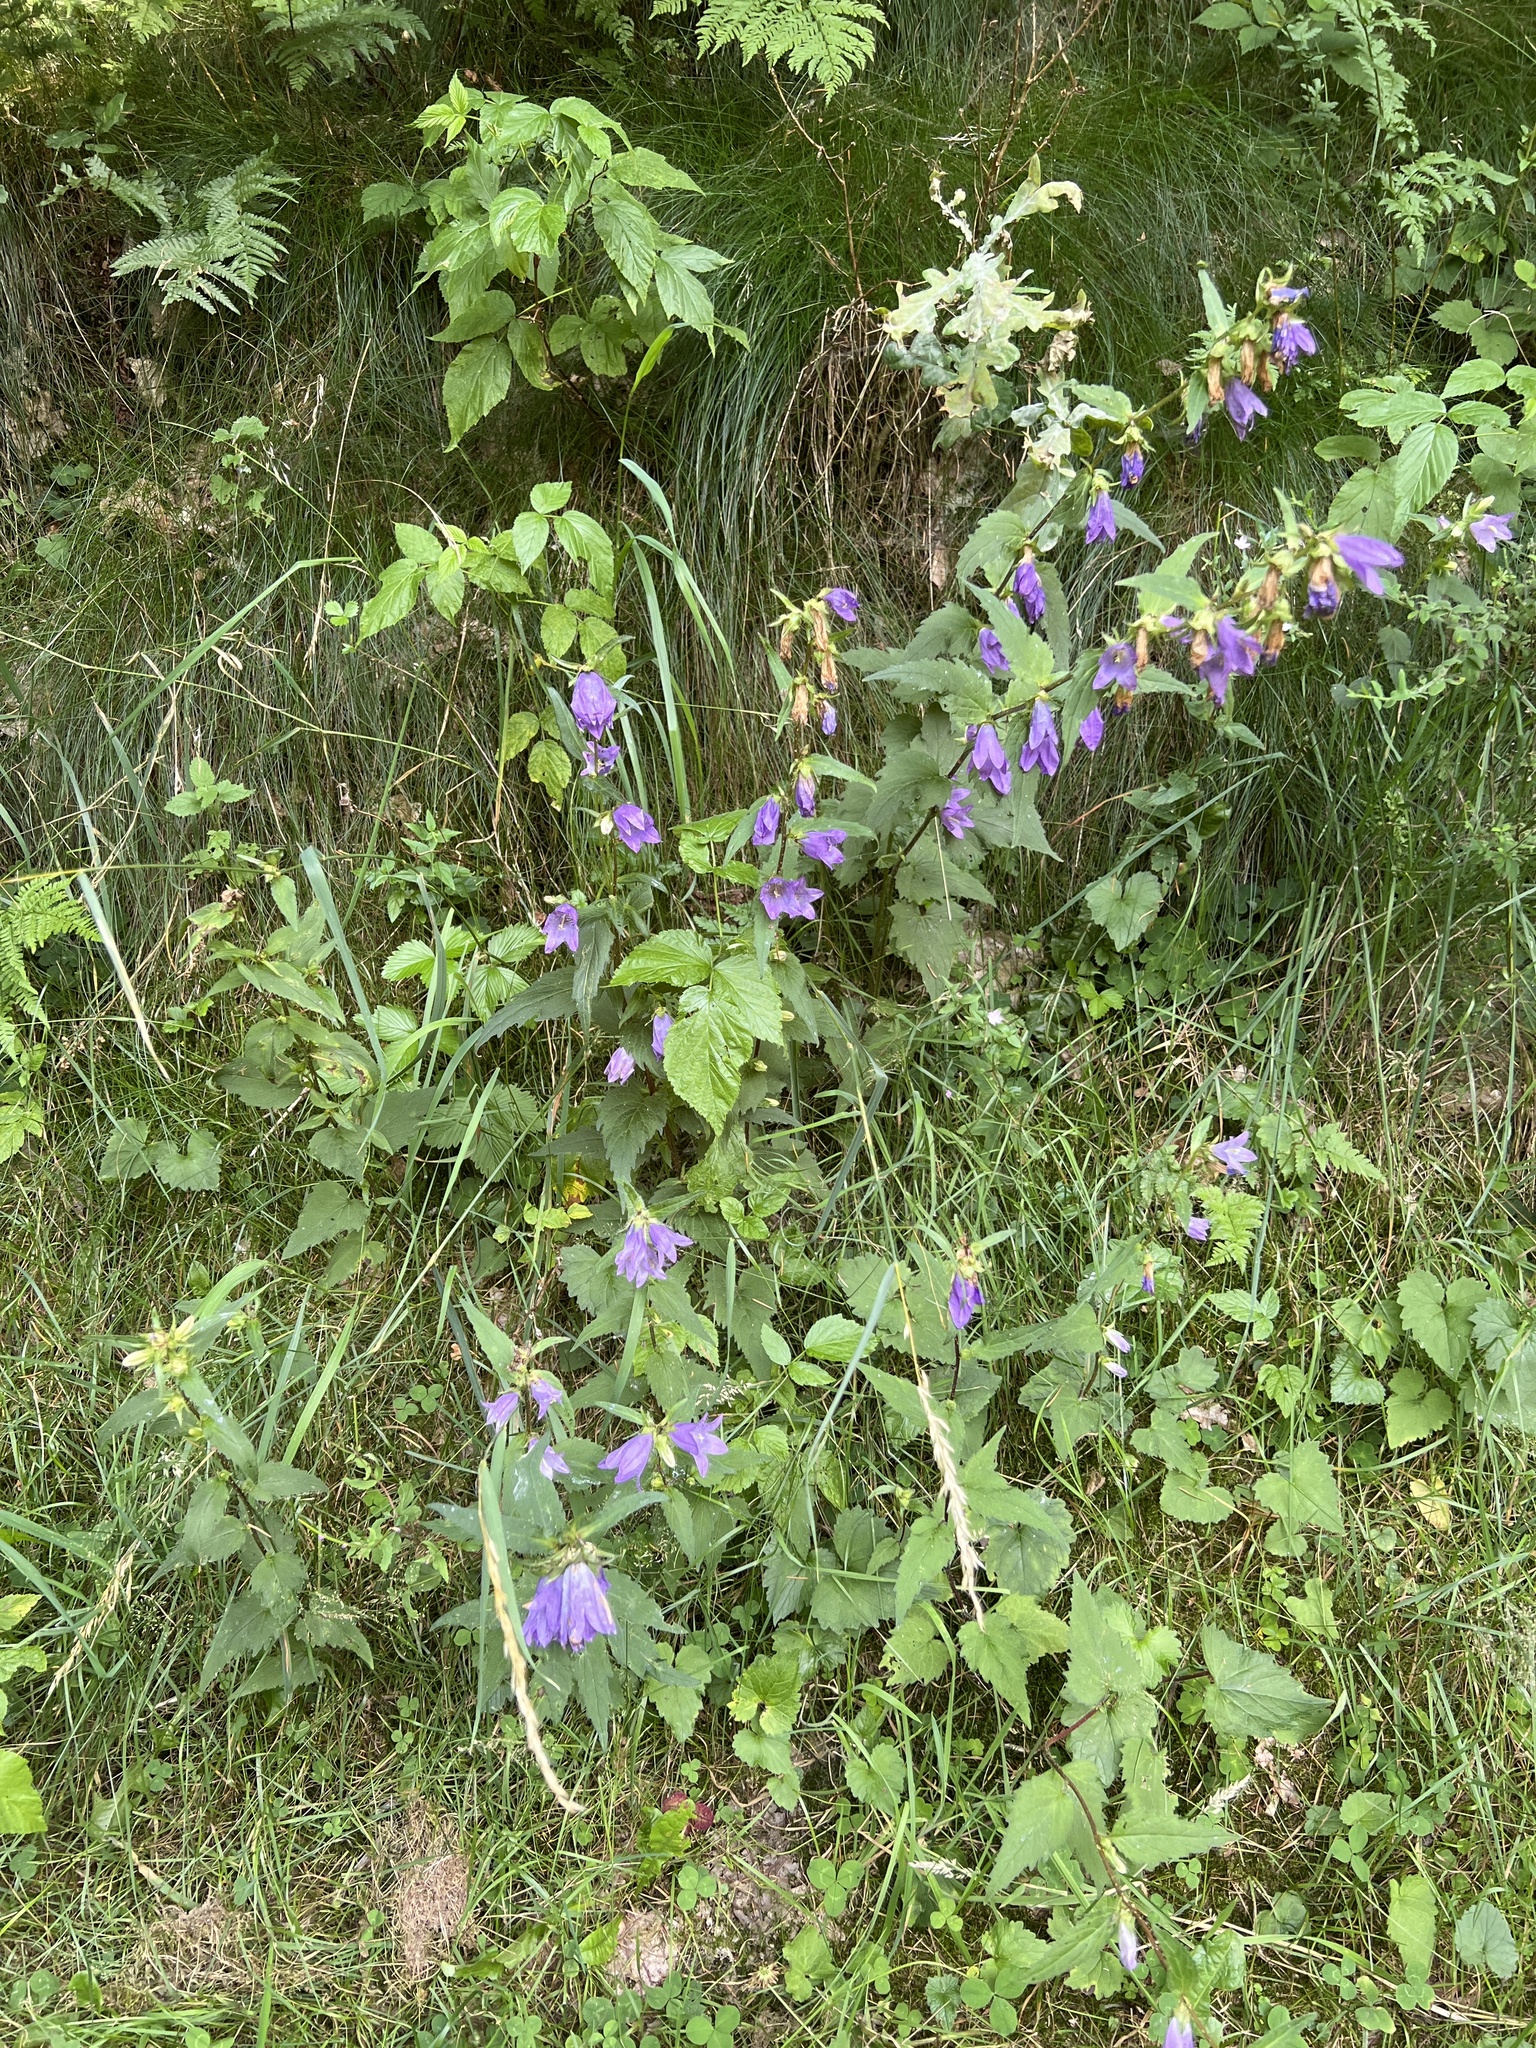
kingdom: Plantae
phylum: Tracheophyta
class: Magnoliopsida
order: Asterales
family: Campanulaceae
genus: Campanula
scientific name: Campanula trachelium
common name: Nettle-leaved bellflower
